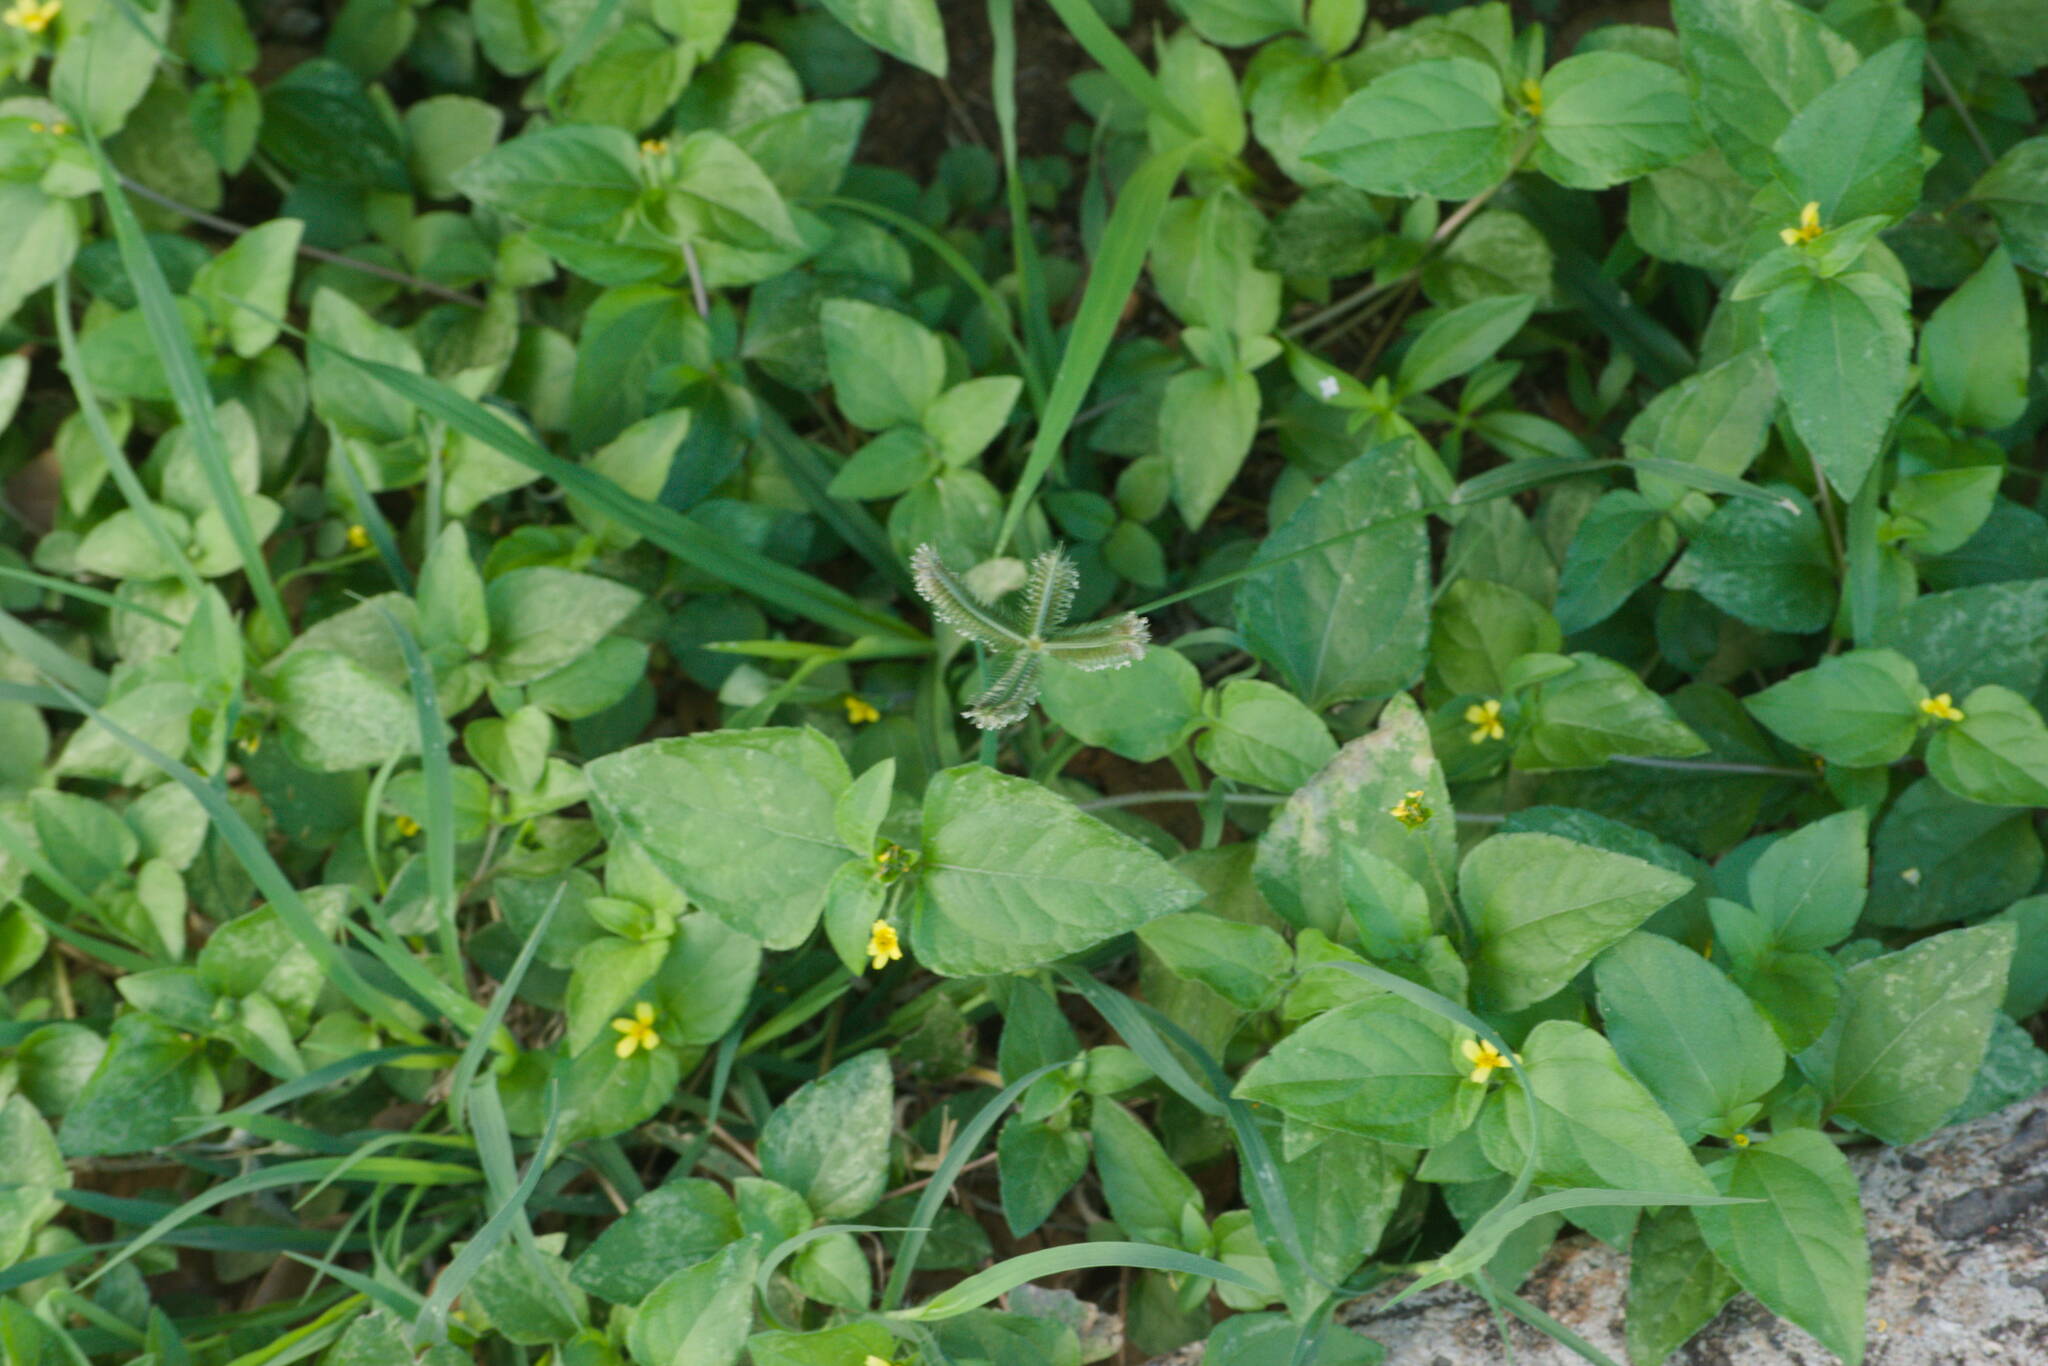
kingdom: Plantae
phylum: Tracheophyta
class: Liliopsida
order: Poales
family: Poaceae
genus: Dactyloctenium
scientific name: Dactyloctenium aegyptium
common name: Egyptian grass
